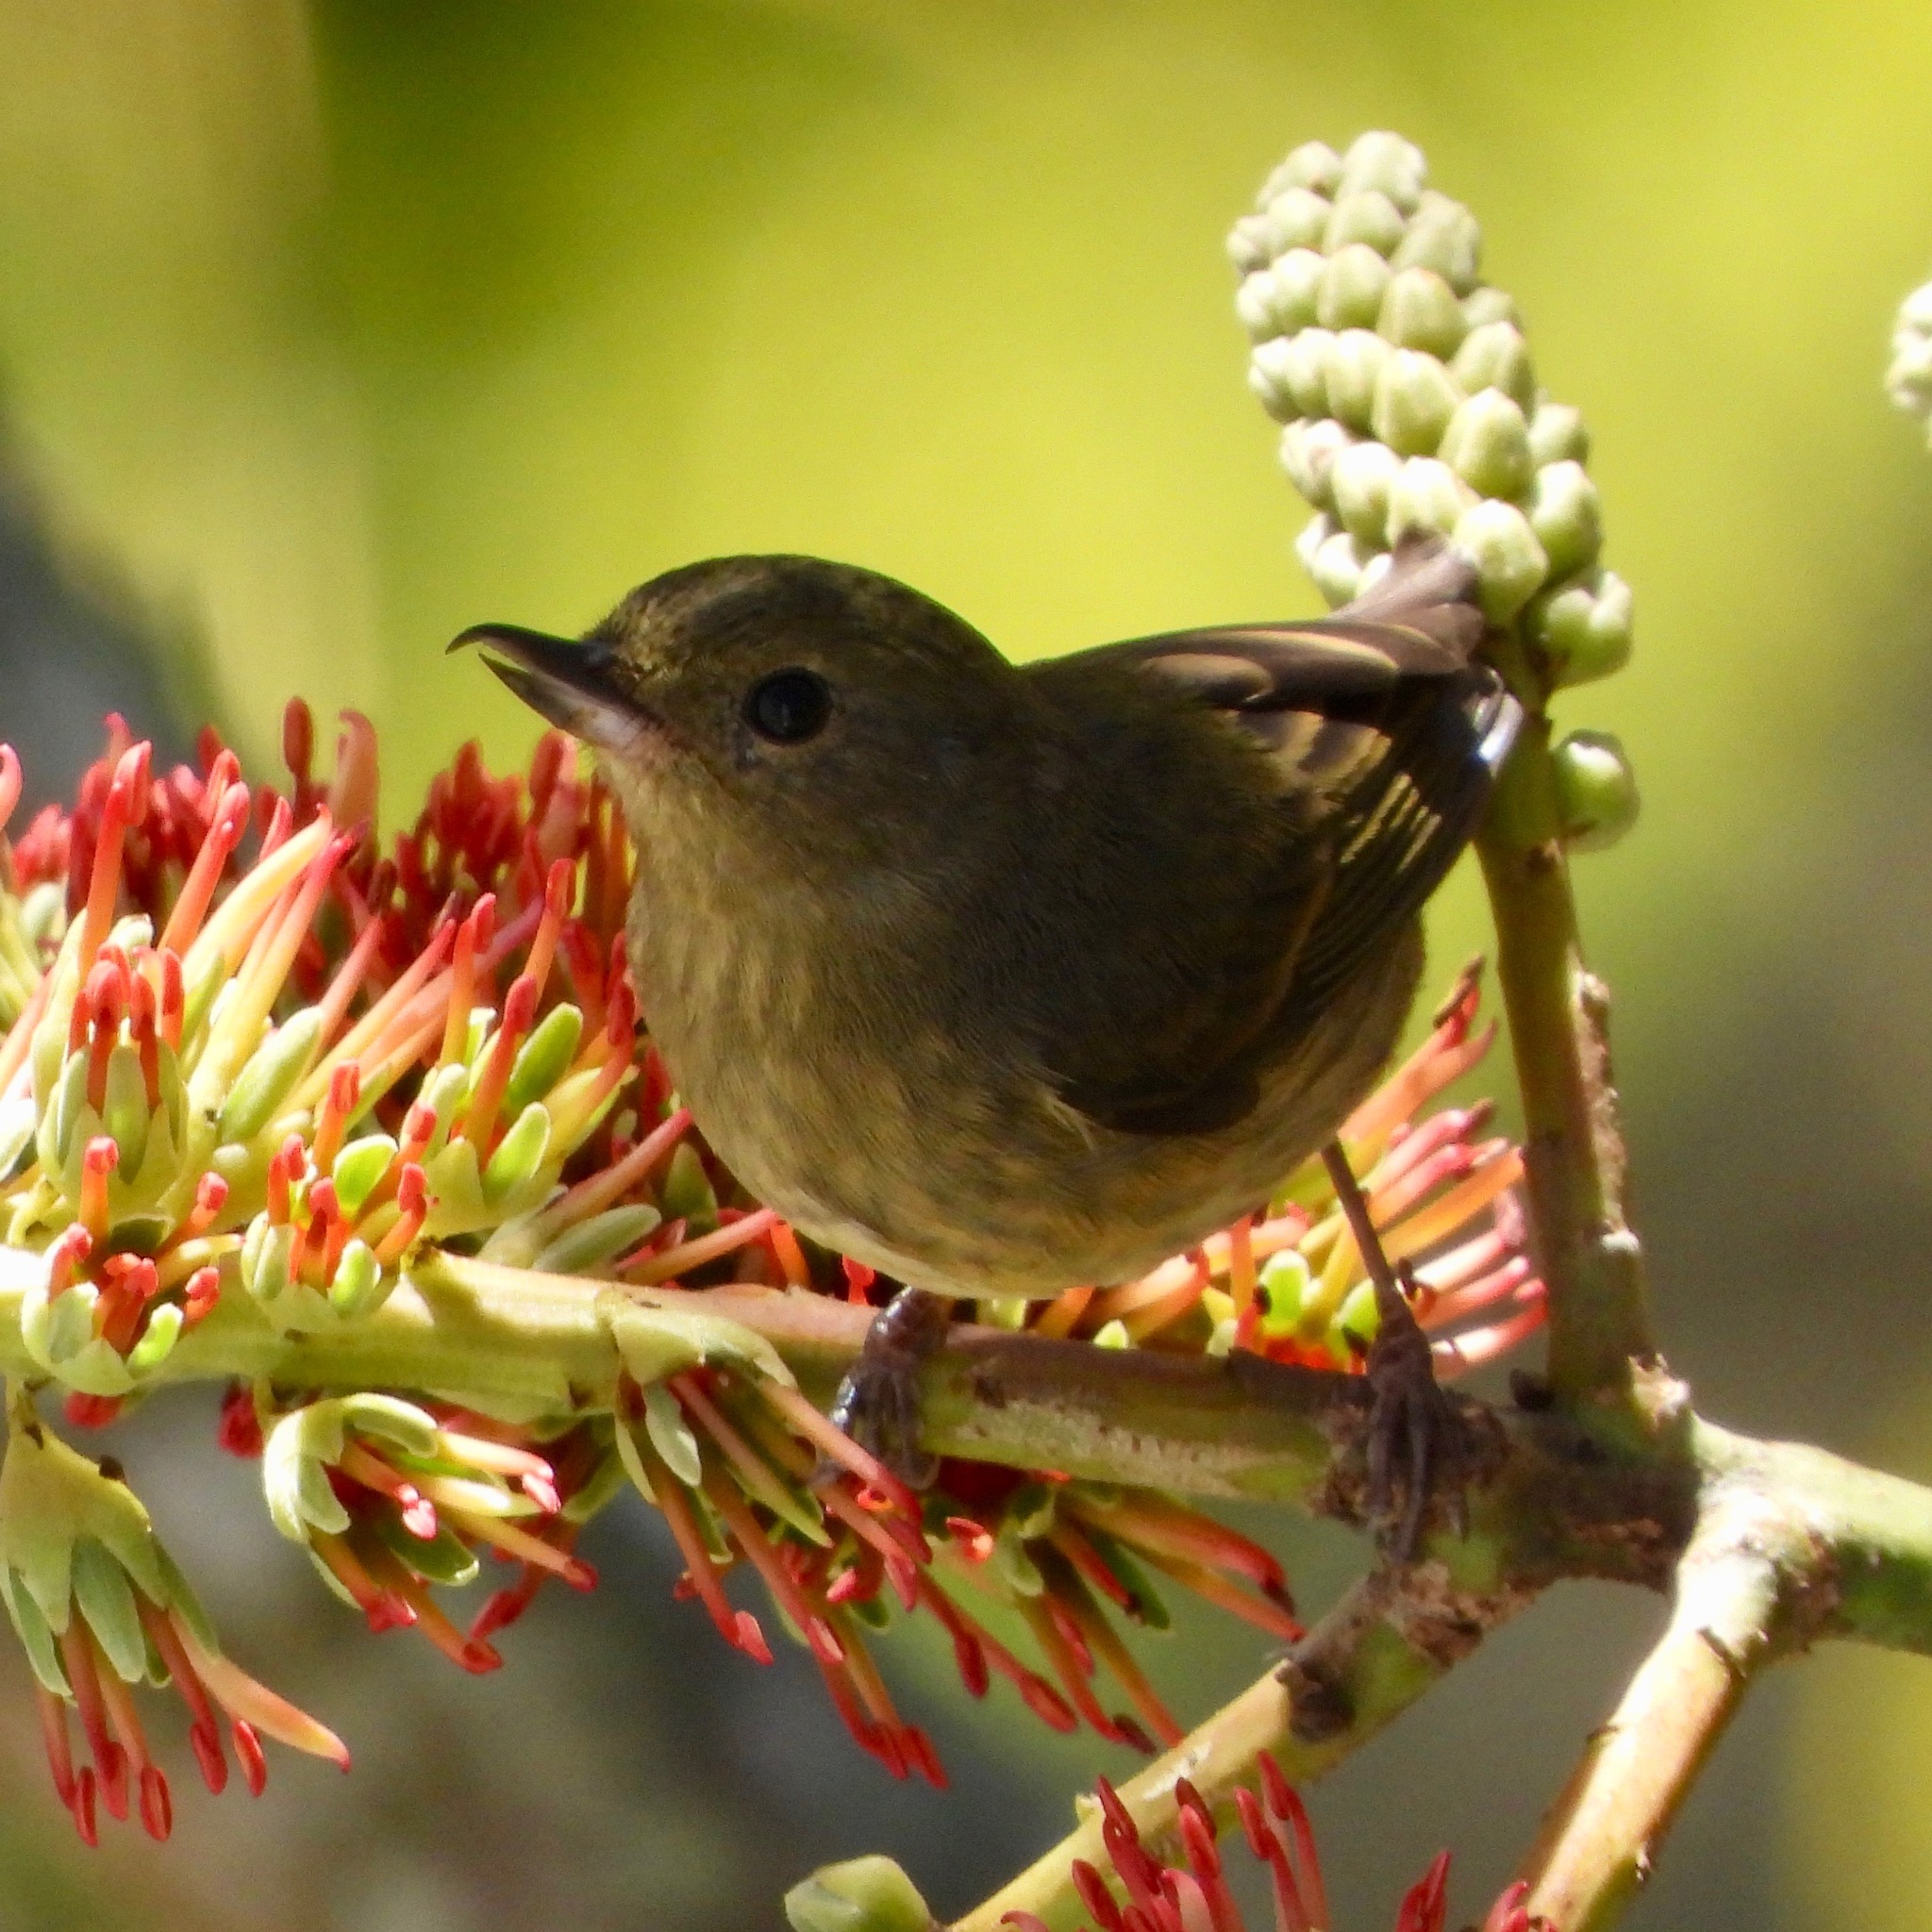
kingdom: Animalia
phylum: Chordata
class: Aves
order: Passeriformes
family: Thraupidae
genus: Diglossa
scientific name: Diglossa baritula
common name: Cinnamon-bellied flowerpiercer
